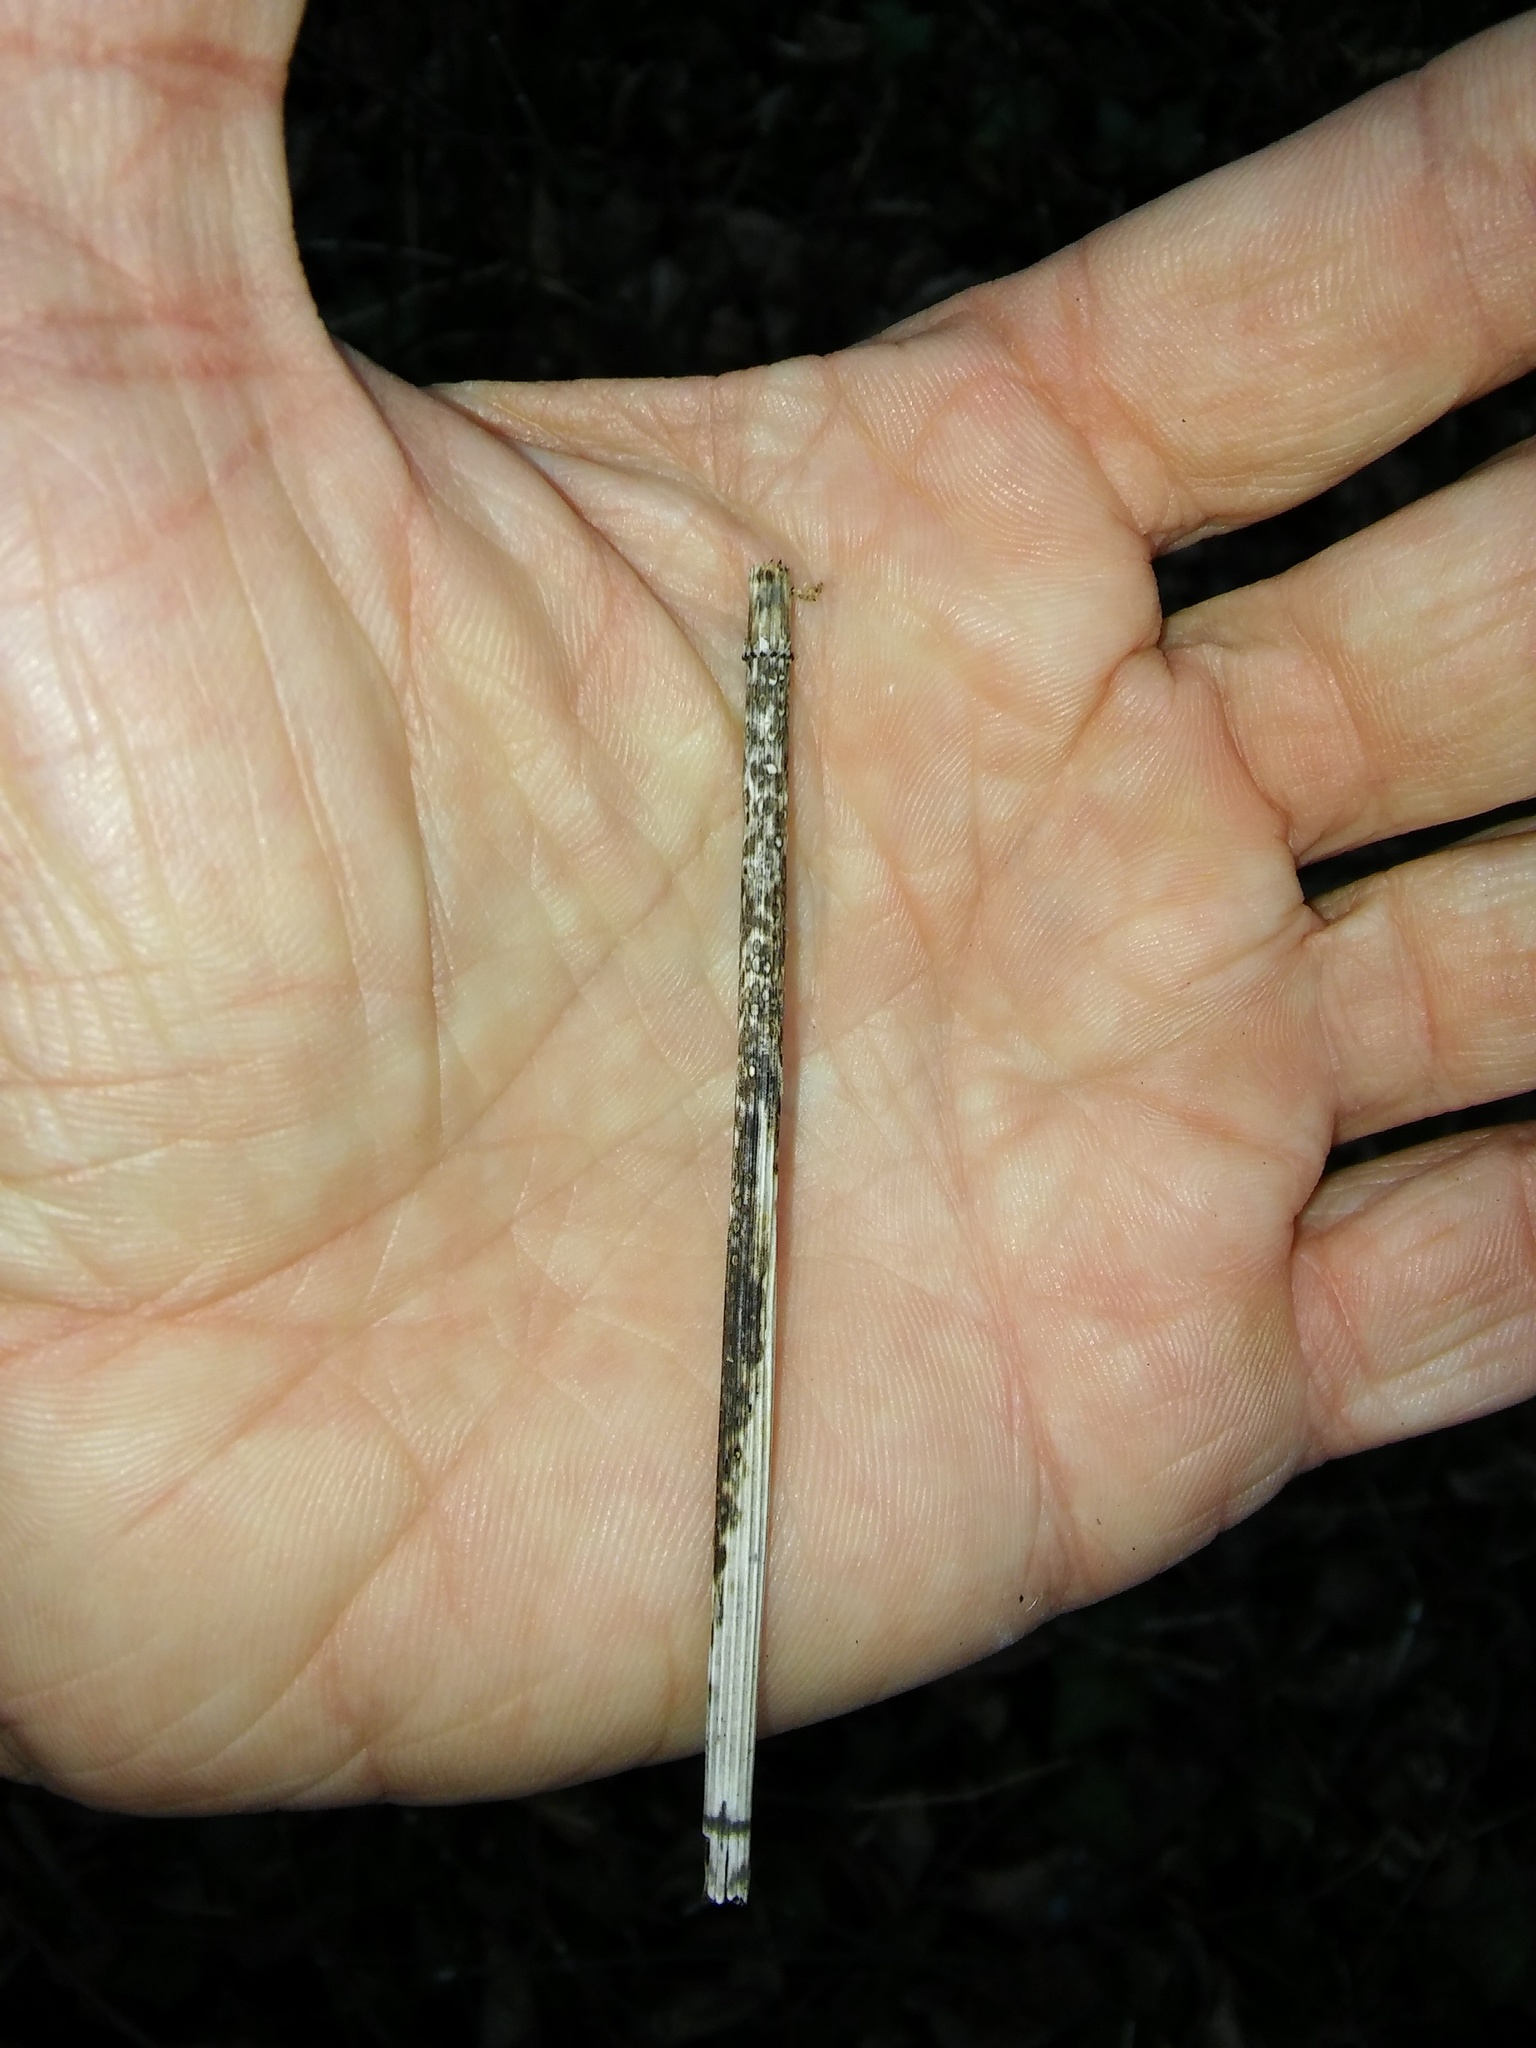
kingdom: Fungi
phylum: Ascomycota
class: Leotiomycetes
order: Helotiales
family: Helotiaceae
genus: Stamnaria
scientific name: Stamnaria americana
